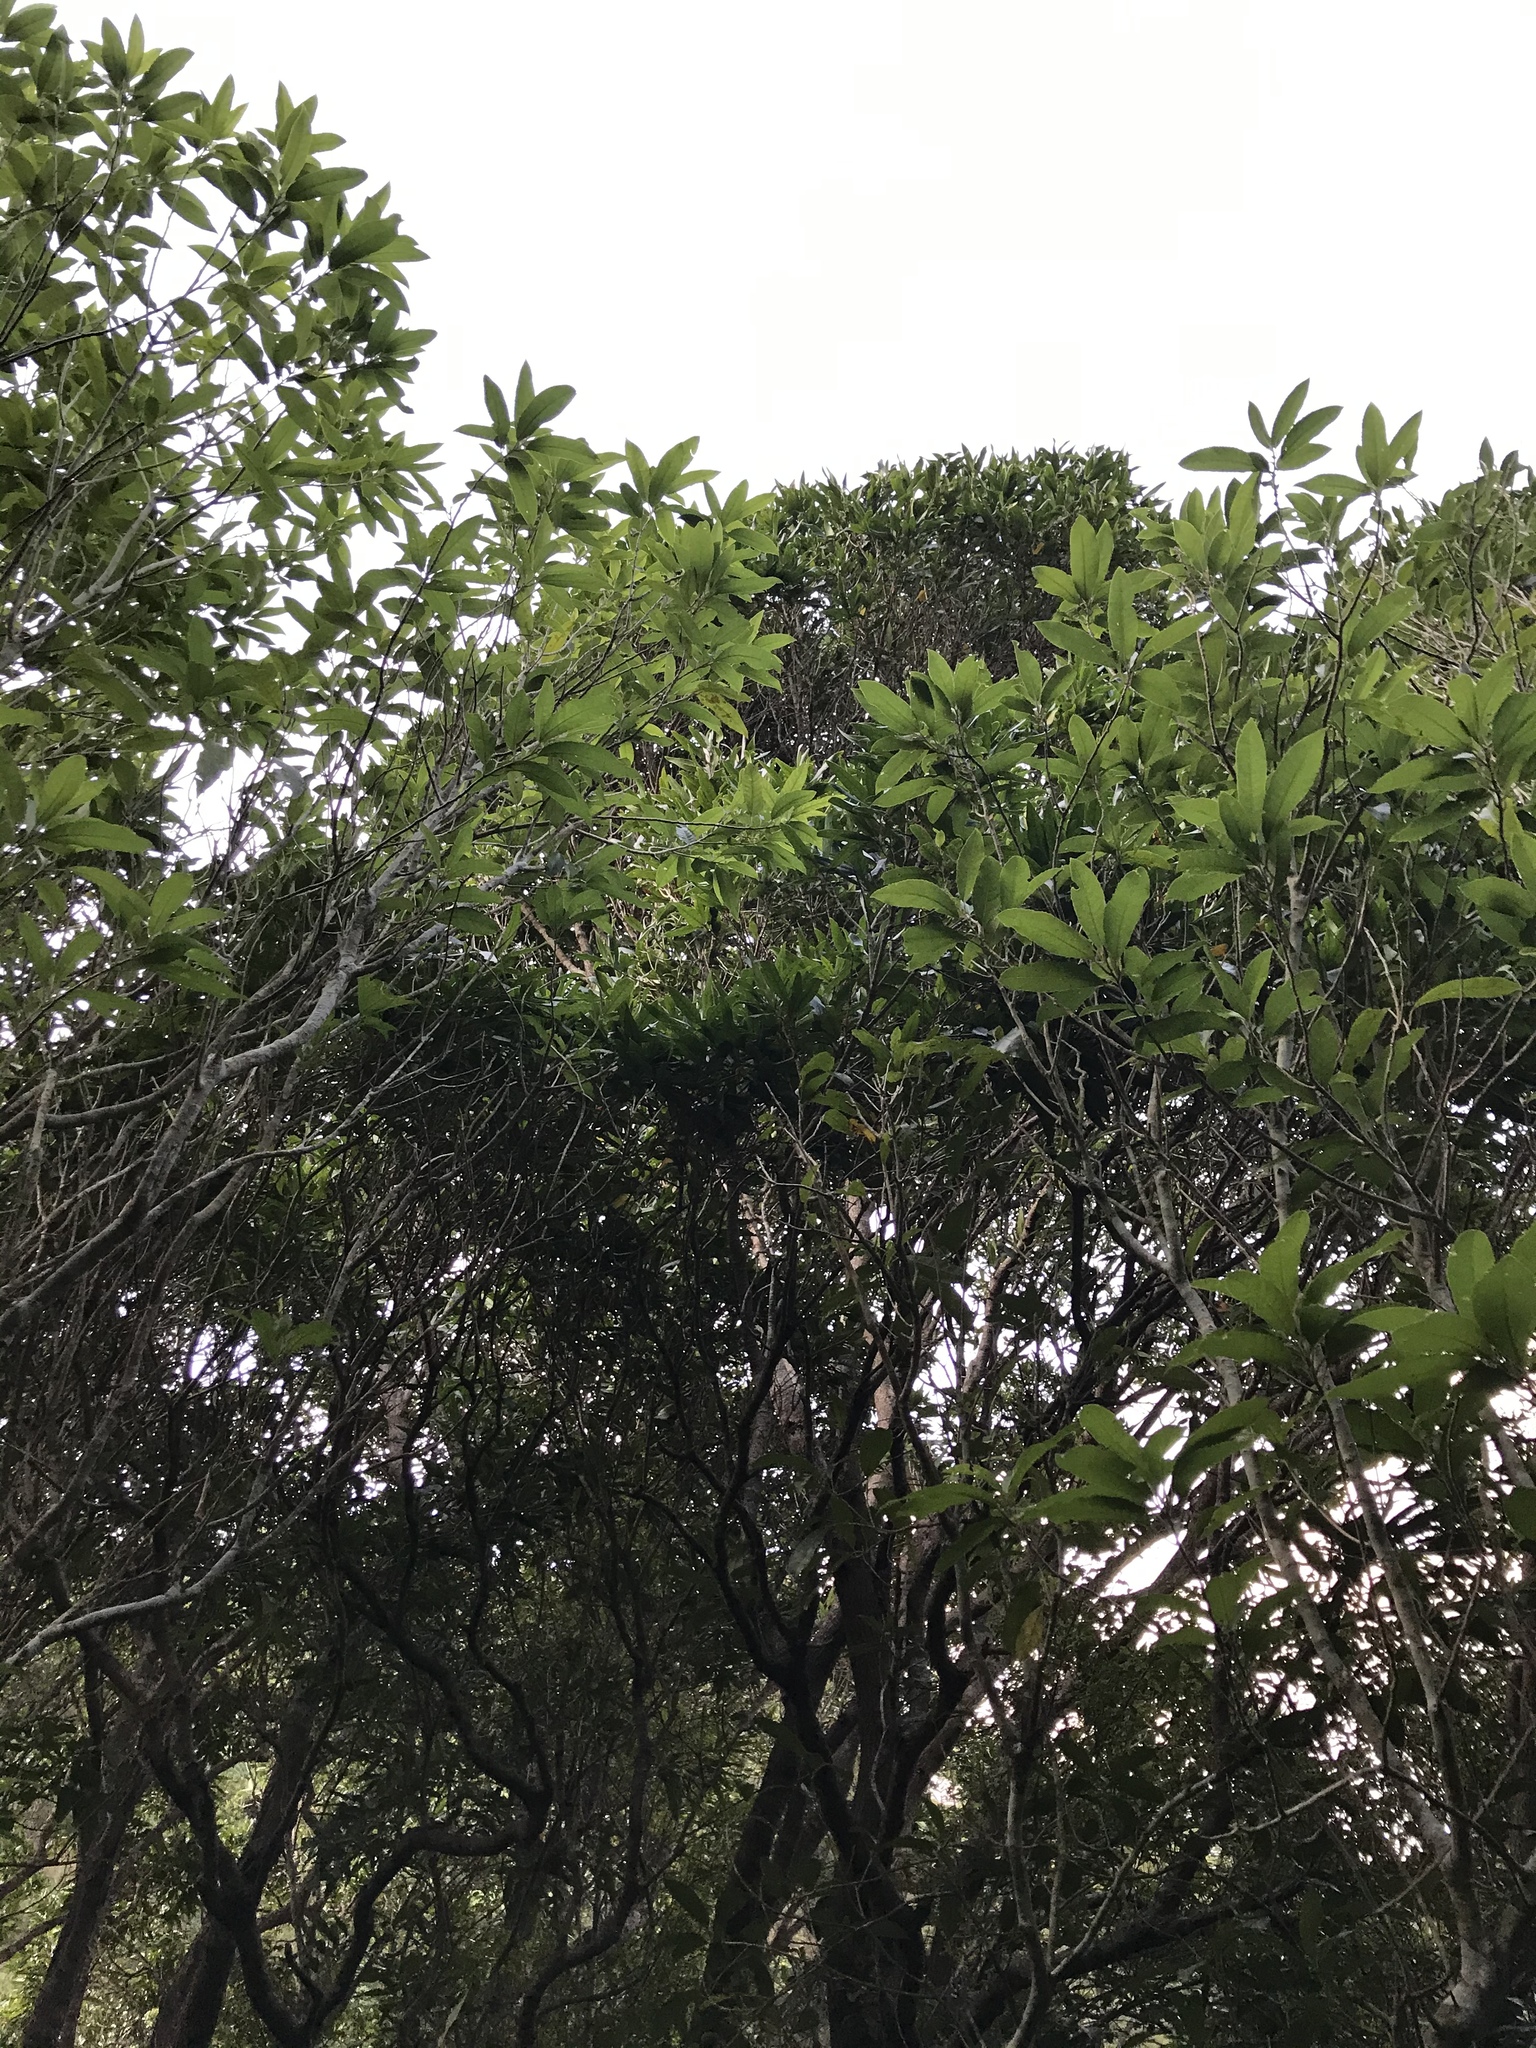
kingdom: Plantae
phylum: Tracheophyta
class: Magnoliopsida
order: Lamiales
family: Oleaceae
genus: Nestegis
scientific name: Nestegis cunninghamii
